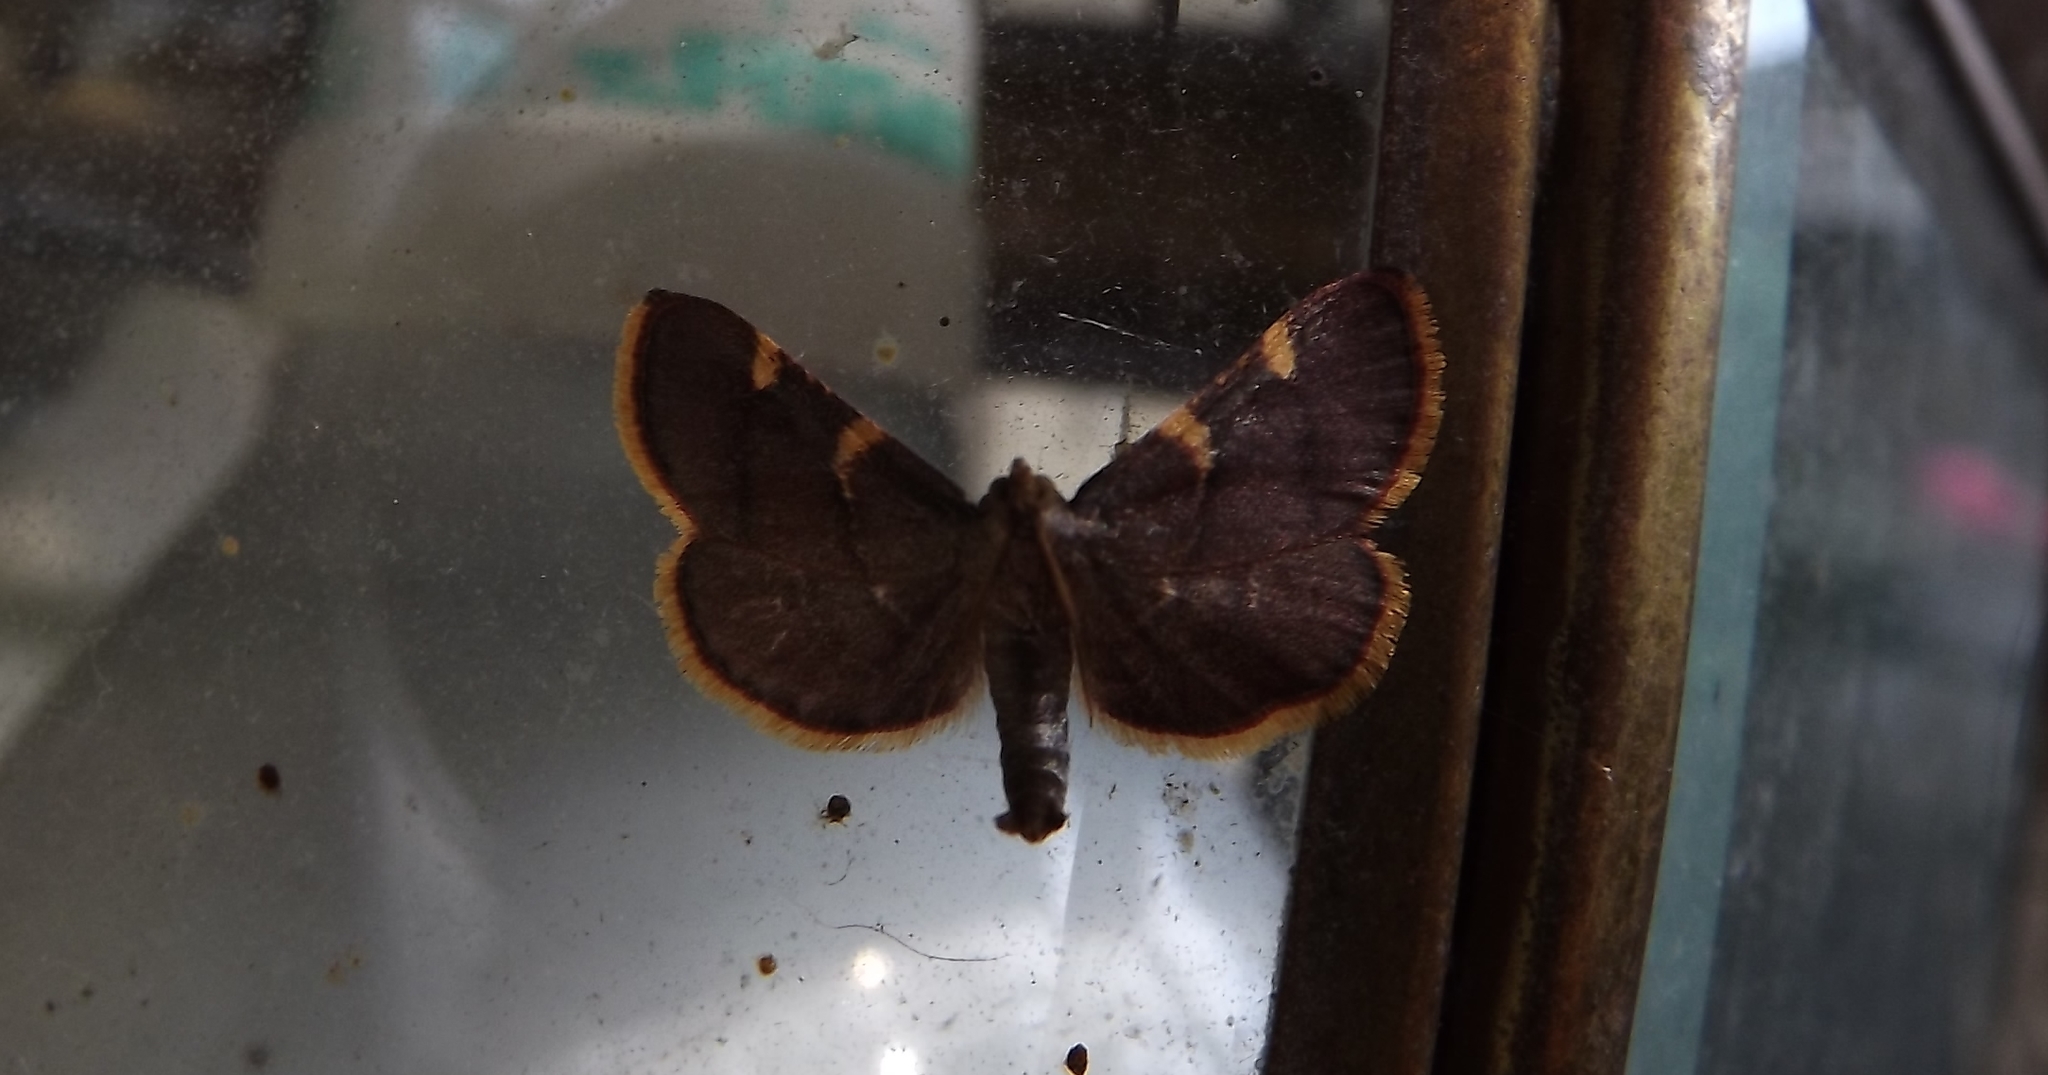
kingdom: Animalia
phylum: Arthropoda
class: Insecta
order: Lepidoptera
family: Pyralidae
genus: Hypsopygia
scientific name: Hypsopygia olinalis
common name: Yellow-fringed dolichomia moth
